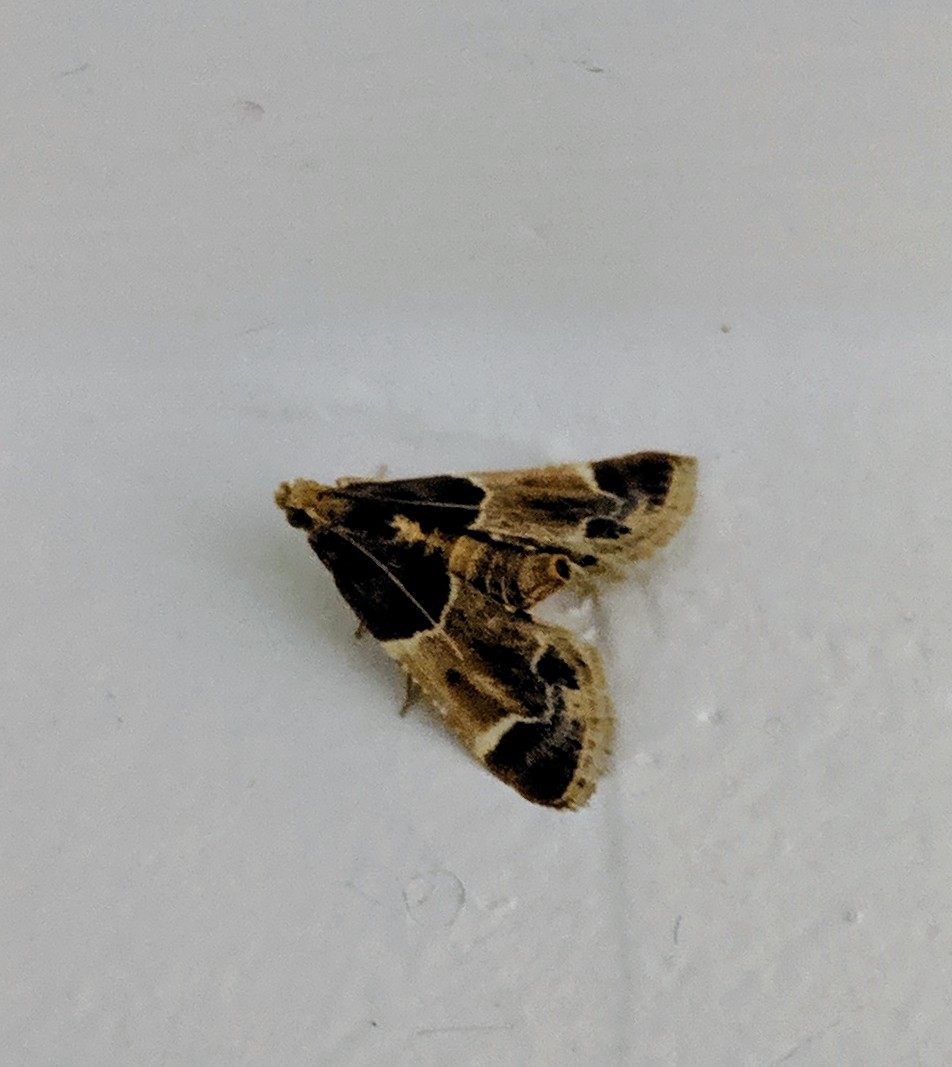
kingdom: Animalia
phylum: Arthropoda
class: Insecta
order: Lepidoptera
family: Pyralidae
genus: Pyralis
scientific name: Pyralis farinalis
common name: Meal moth
